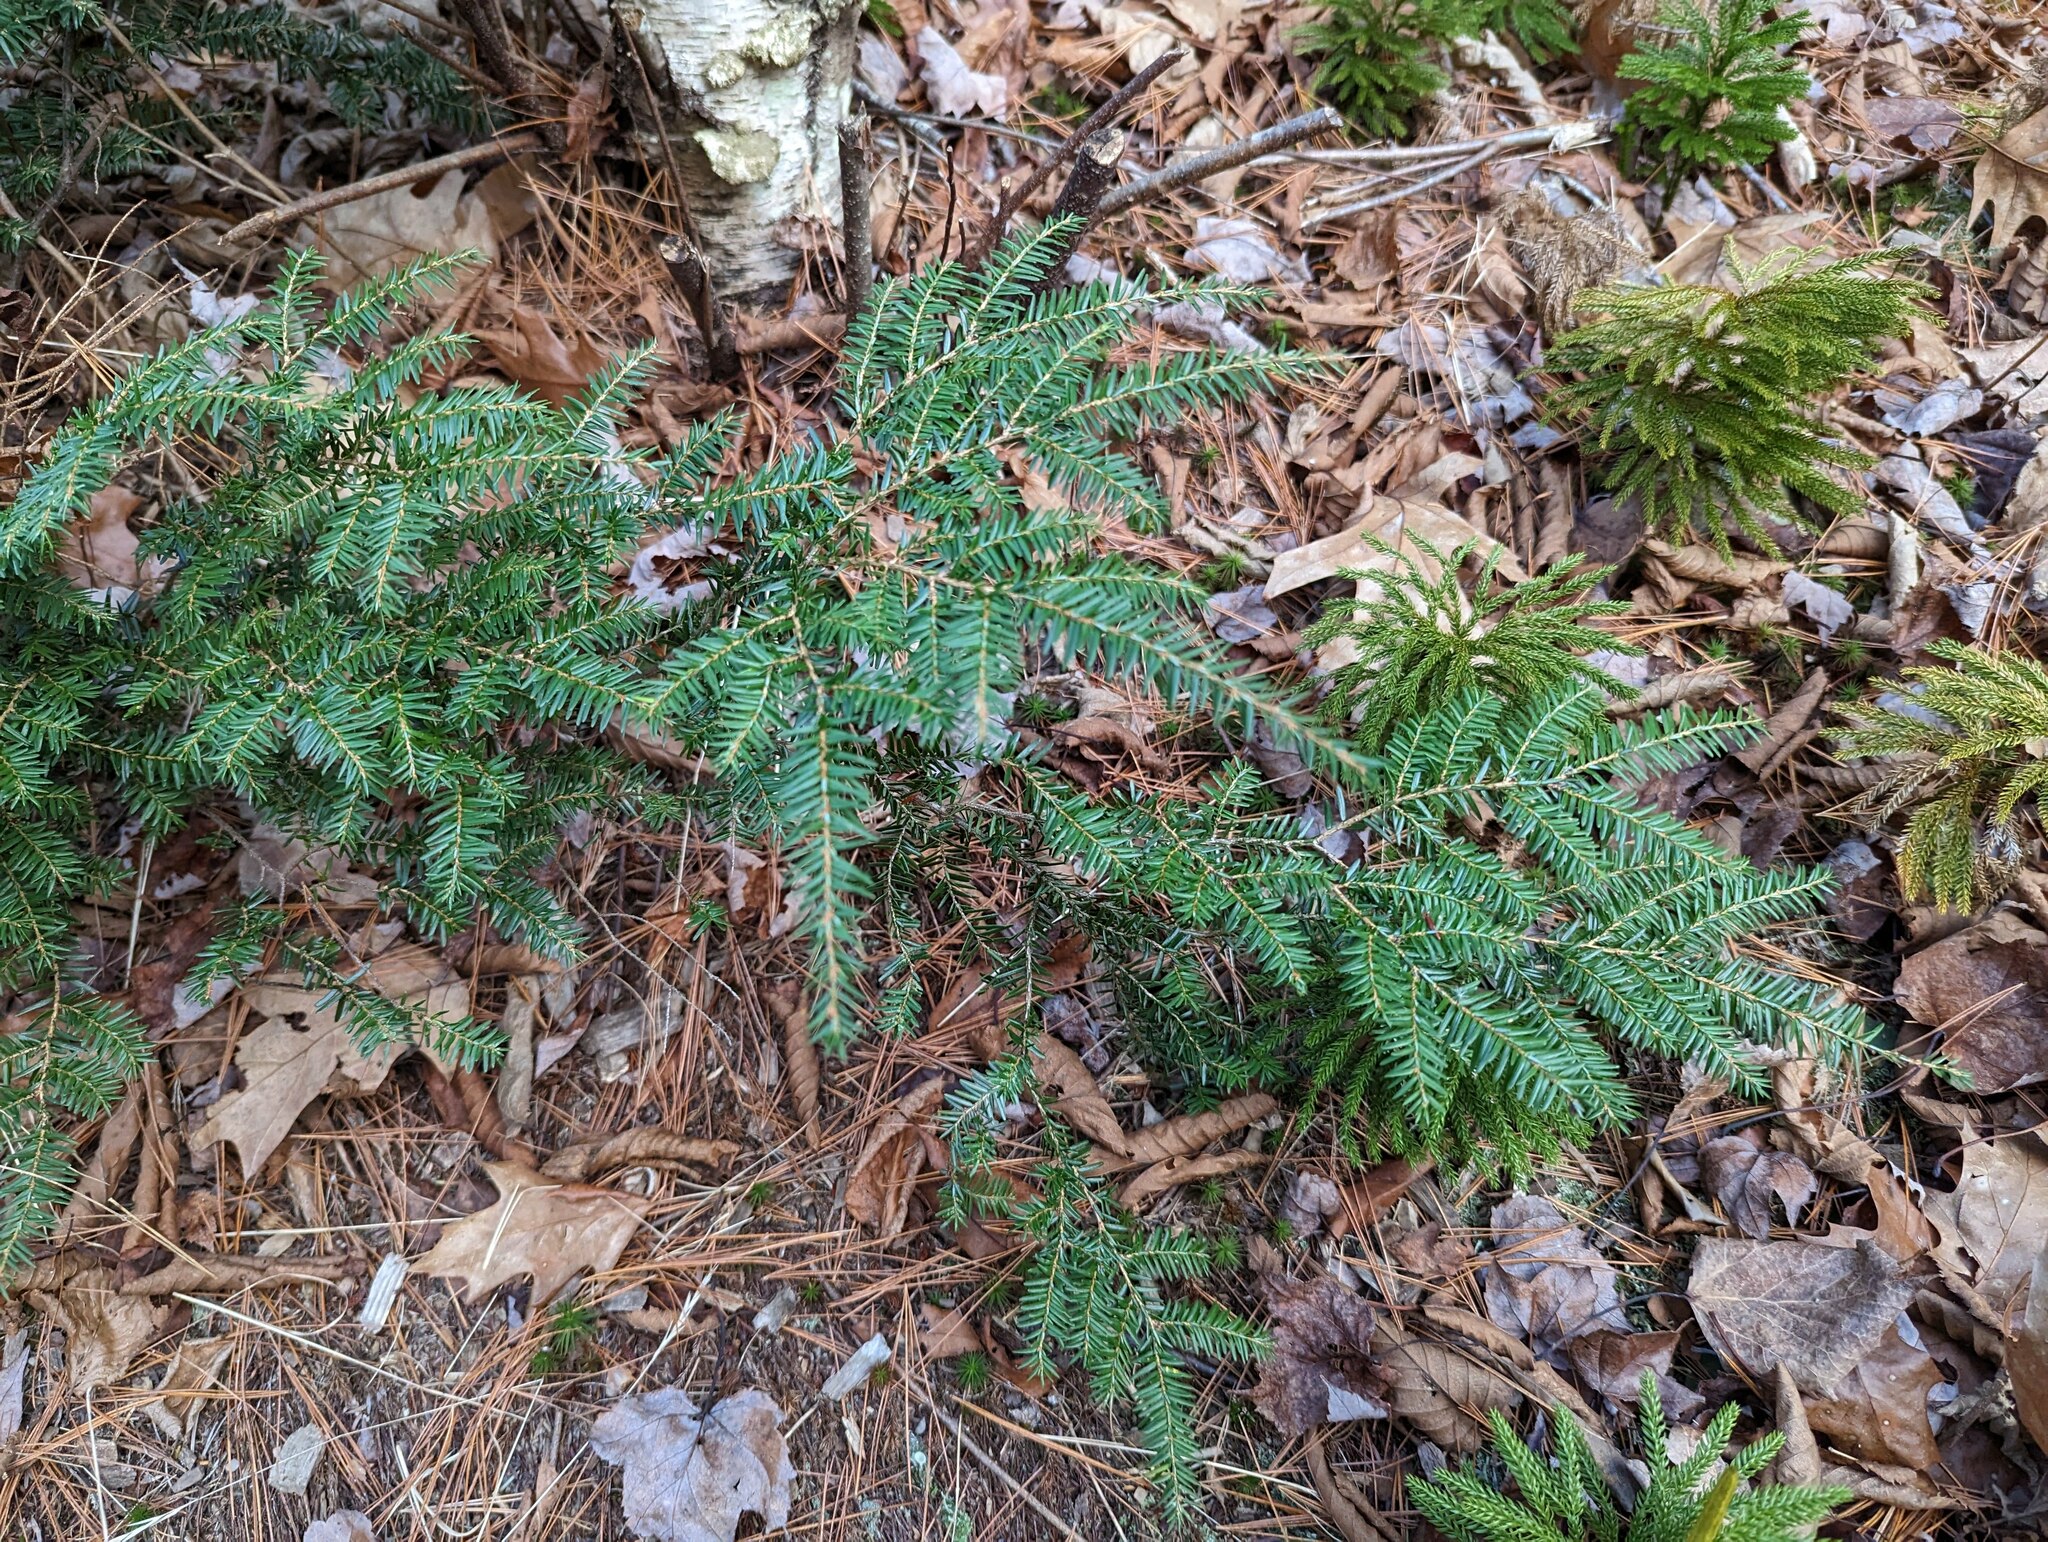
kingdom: Plantae
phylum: Tracheophyta
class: Pinopsida
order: Pinales
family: Pinaceae
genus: Tsuga
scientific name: Tsuga canadensis
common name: Eastern hemlock
